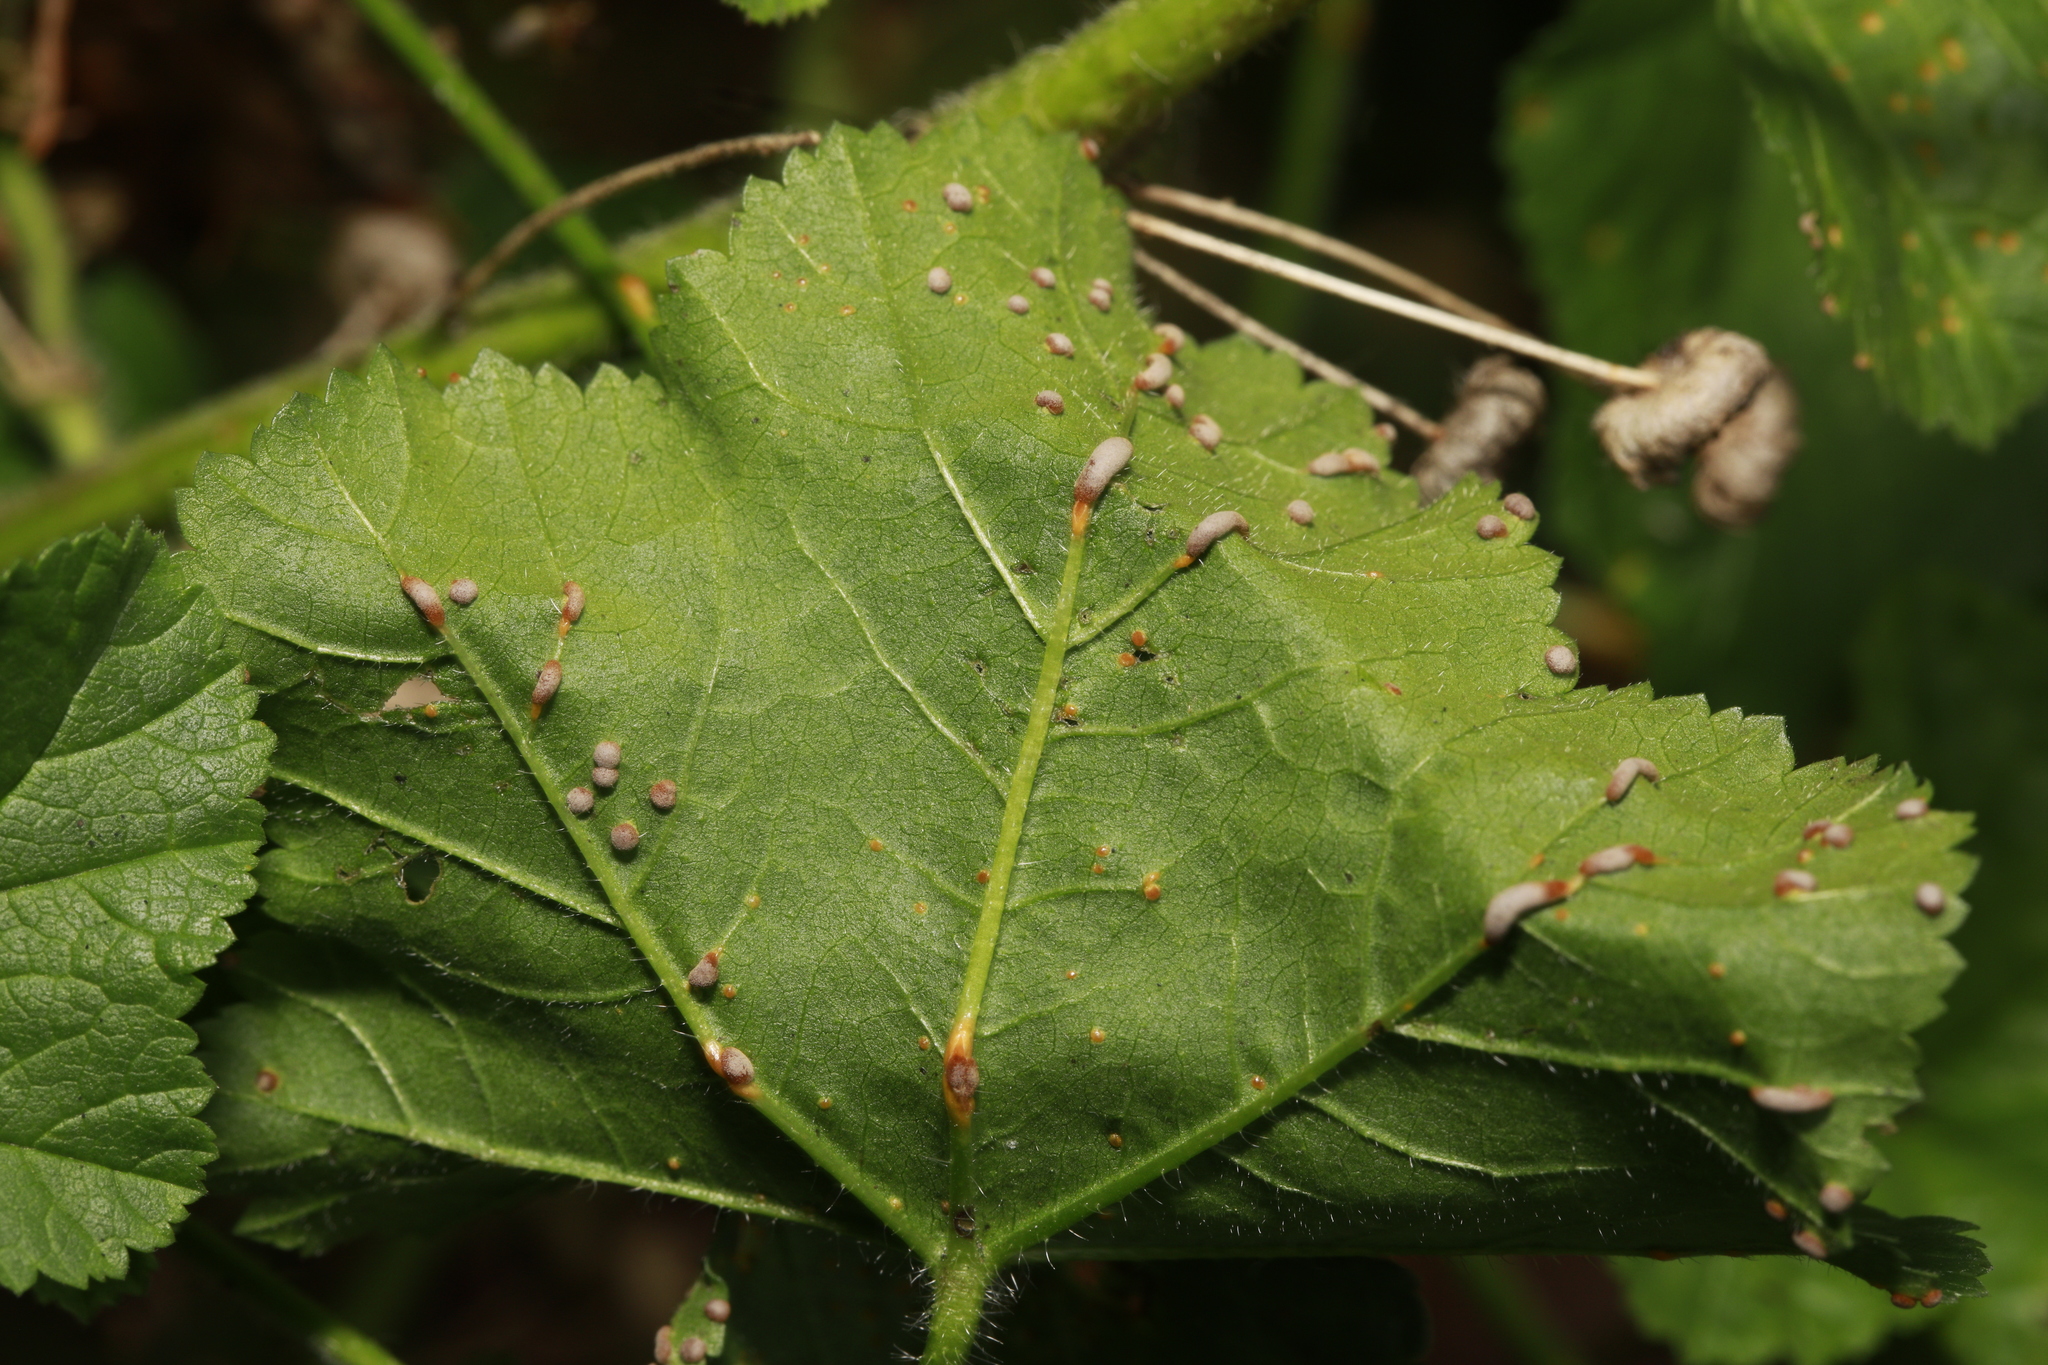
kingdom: Fungi
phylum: Basidiomycota
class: Pucciniomycetes
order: Pucciniales
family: Pucciniaceae
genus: Puccinia
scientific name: Puccinia malvacearum
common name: Hollyhock rust
